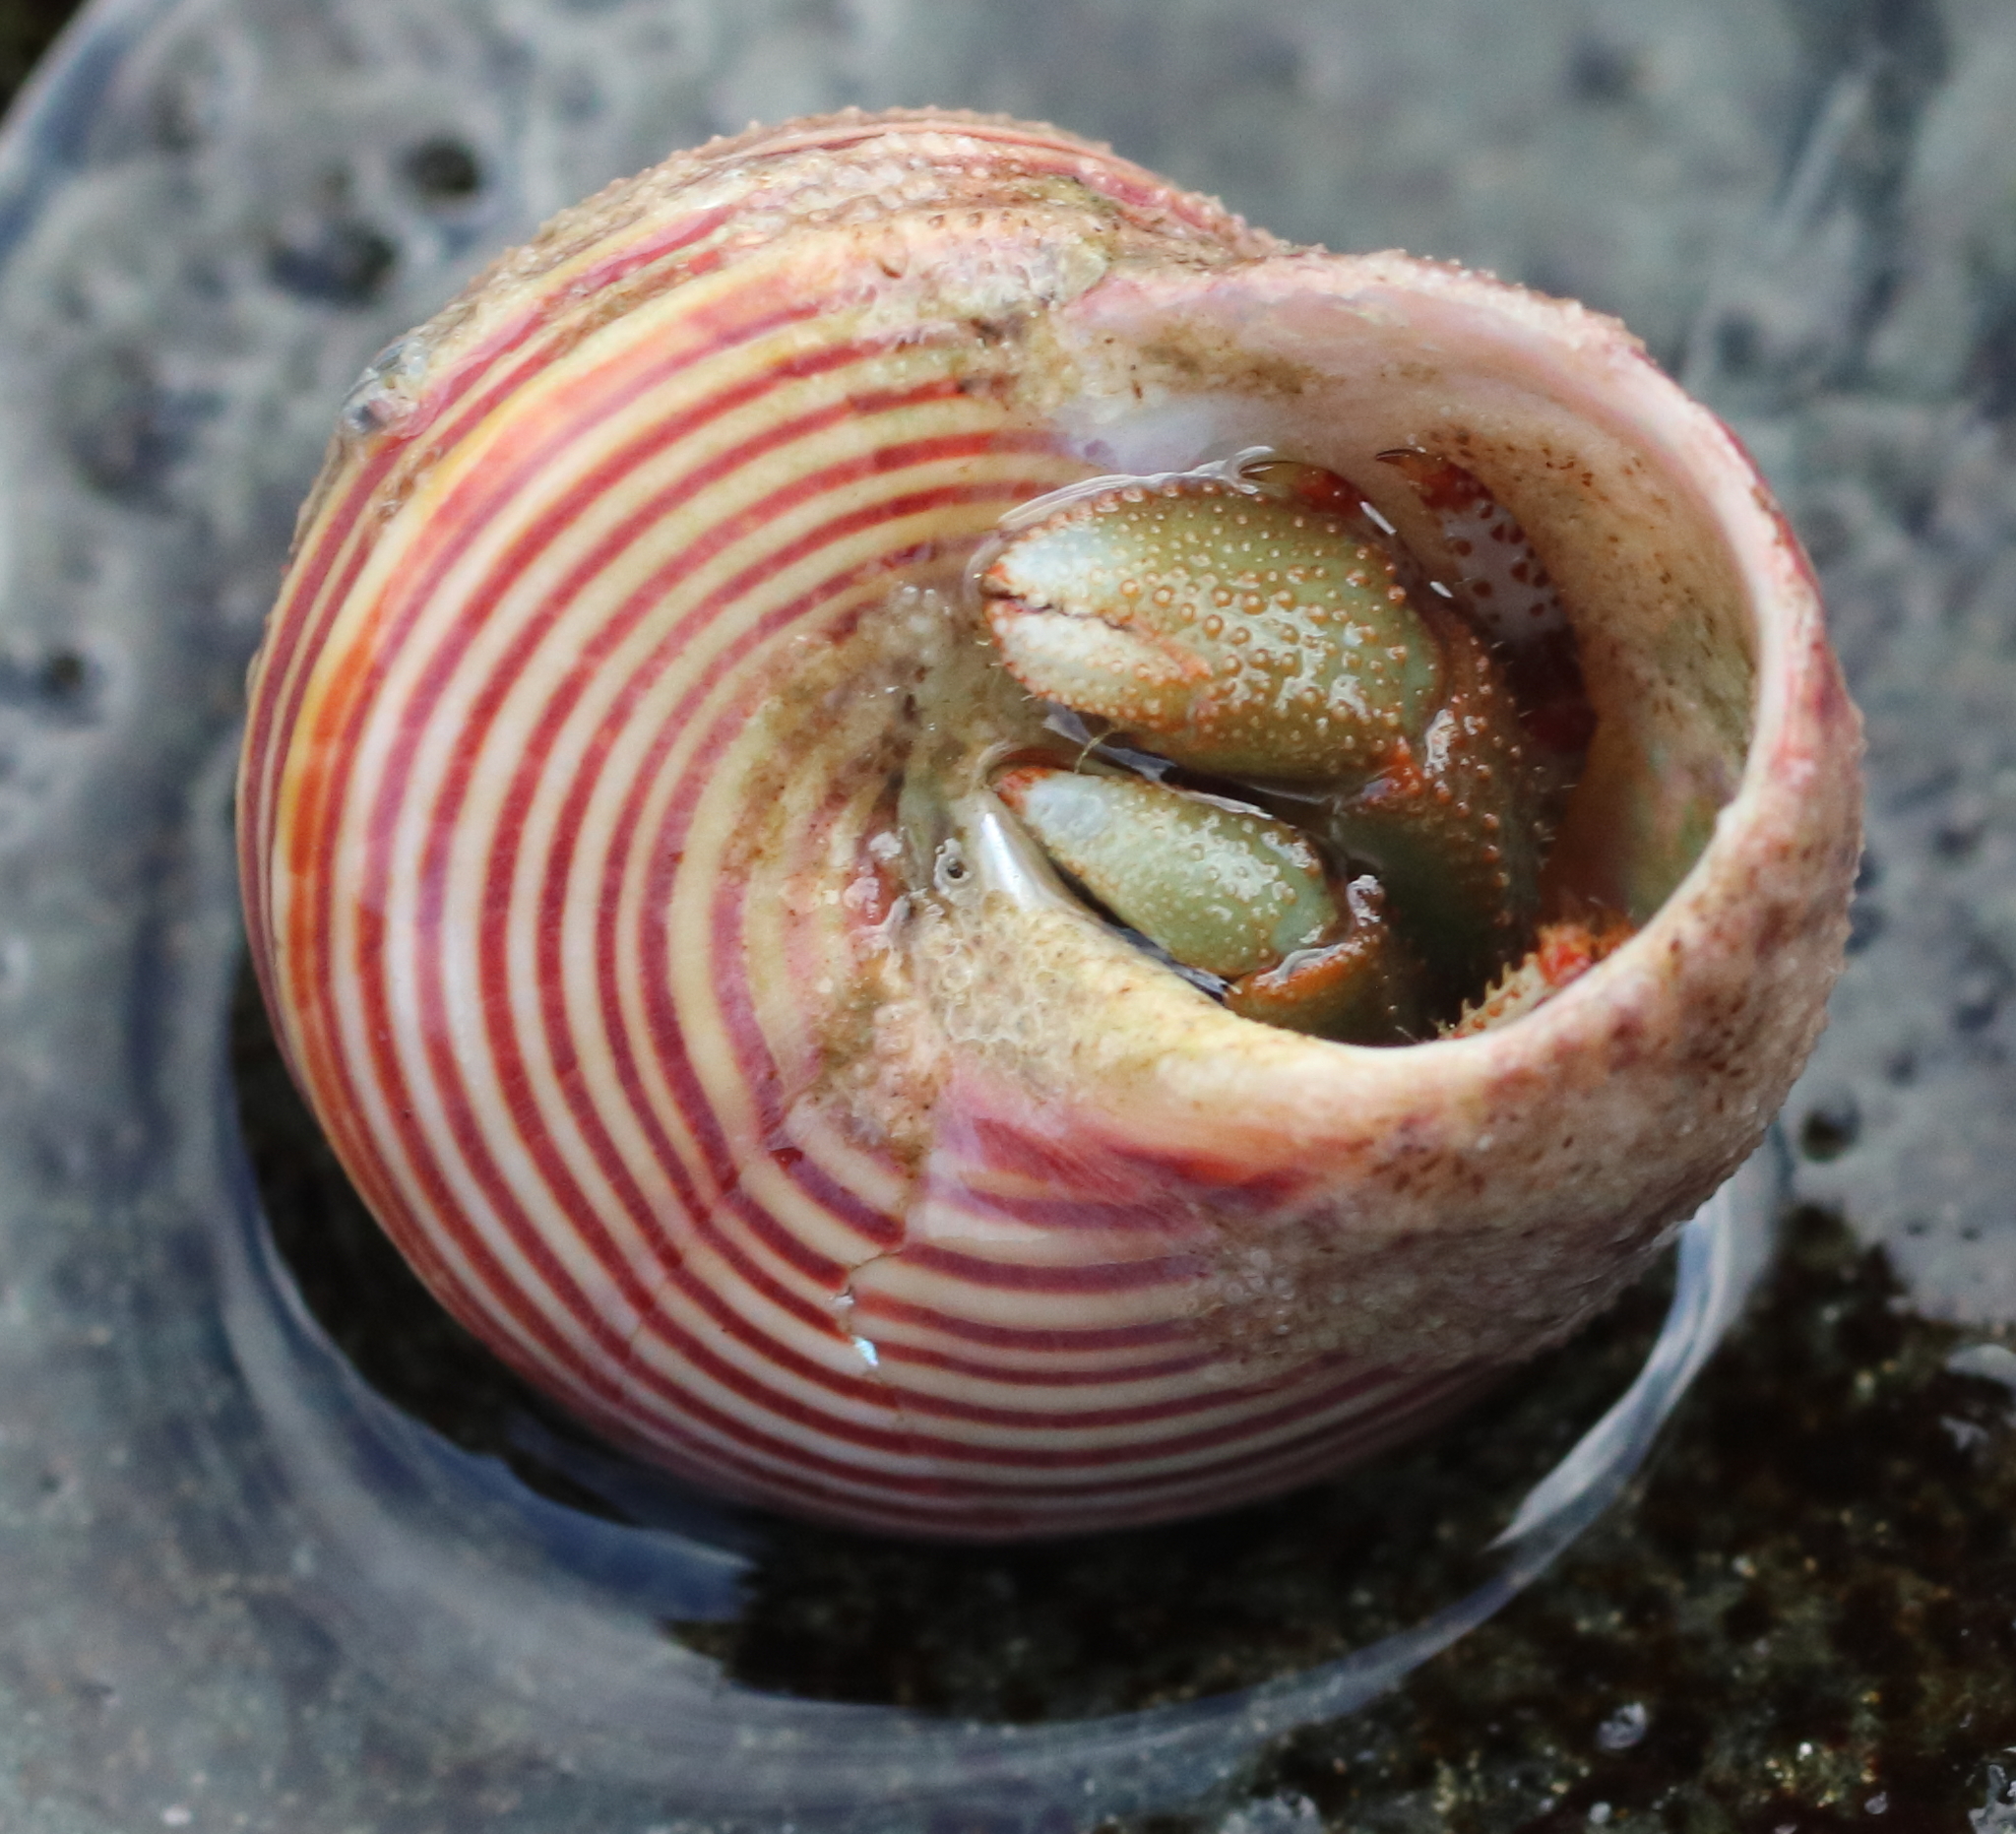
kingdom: Animalia
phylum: Arthropoda
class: Malacostraca
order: Decapoda
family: Paguridae
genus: Pagurus
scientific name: Pagurus beringanus
